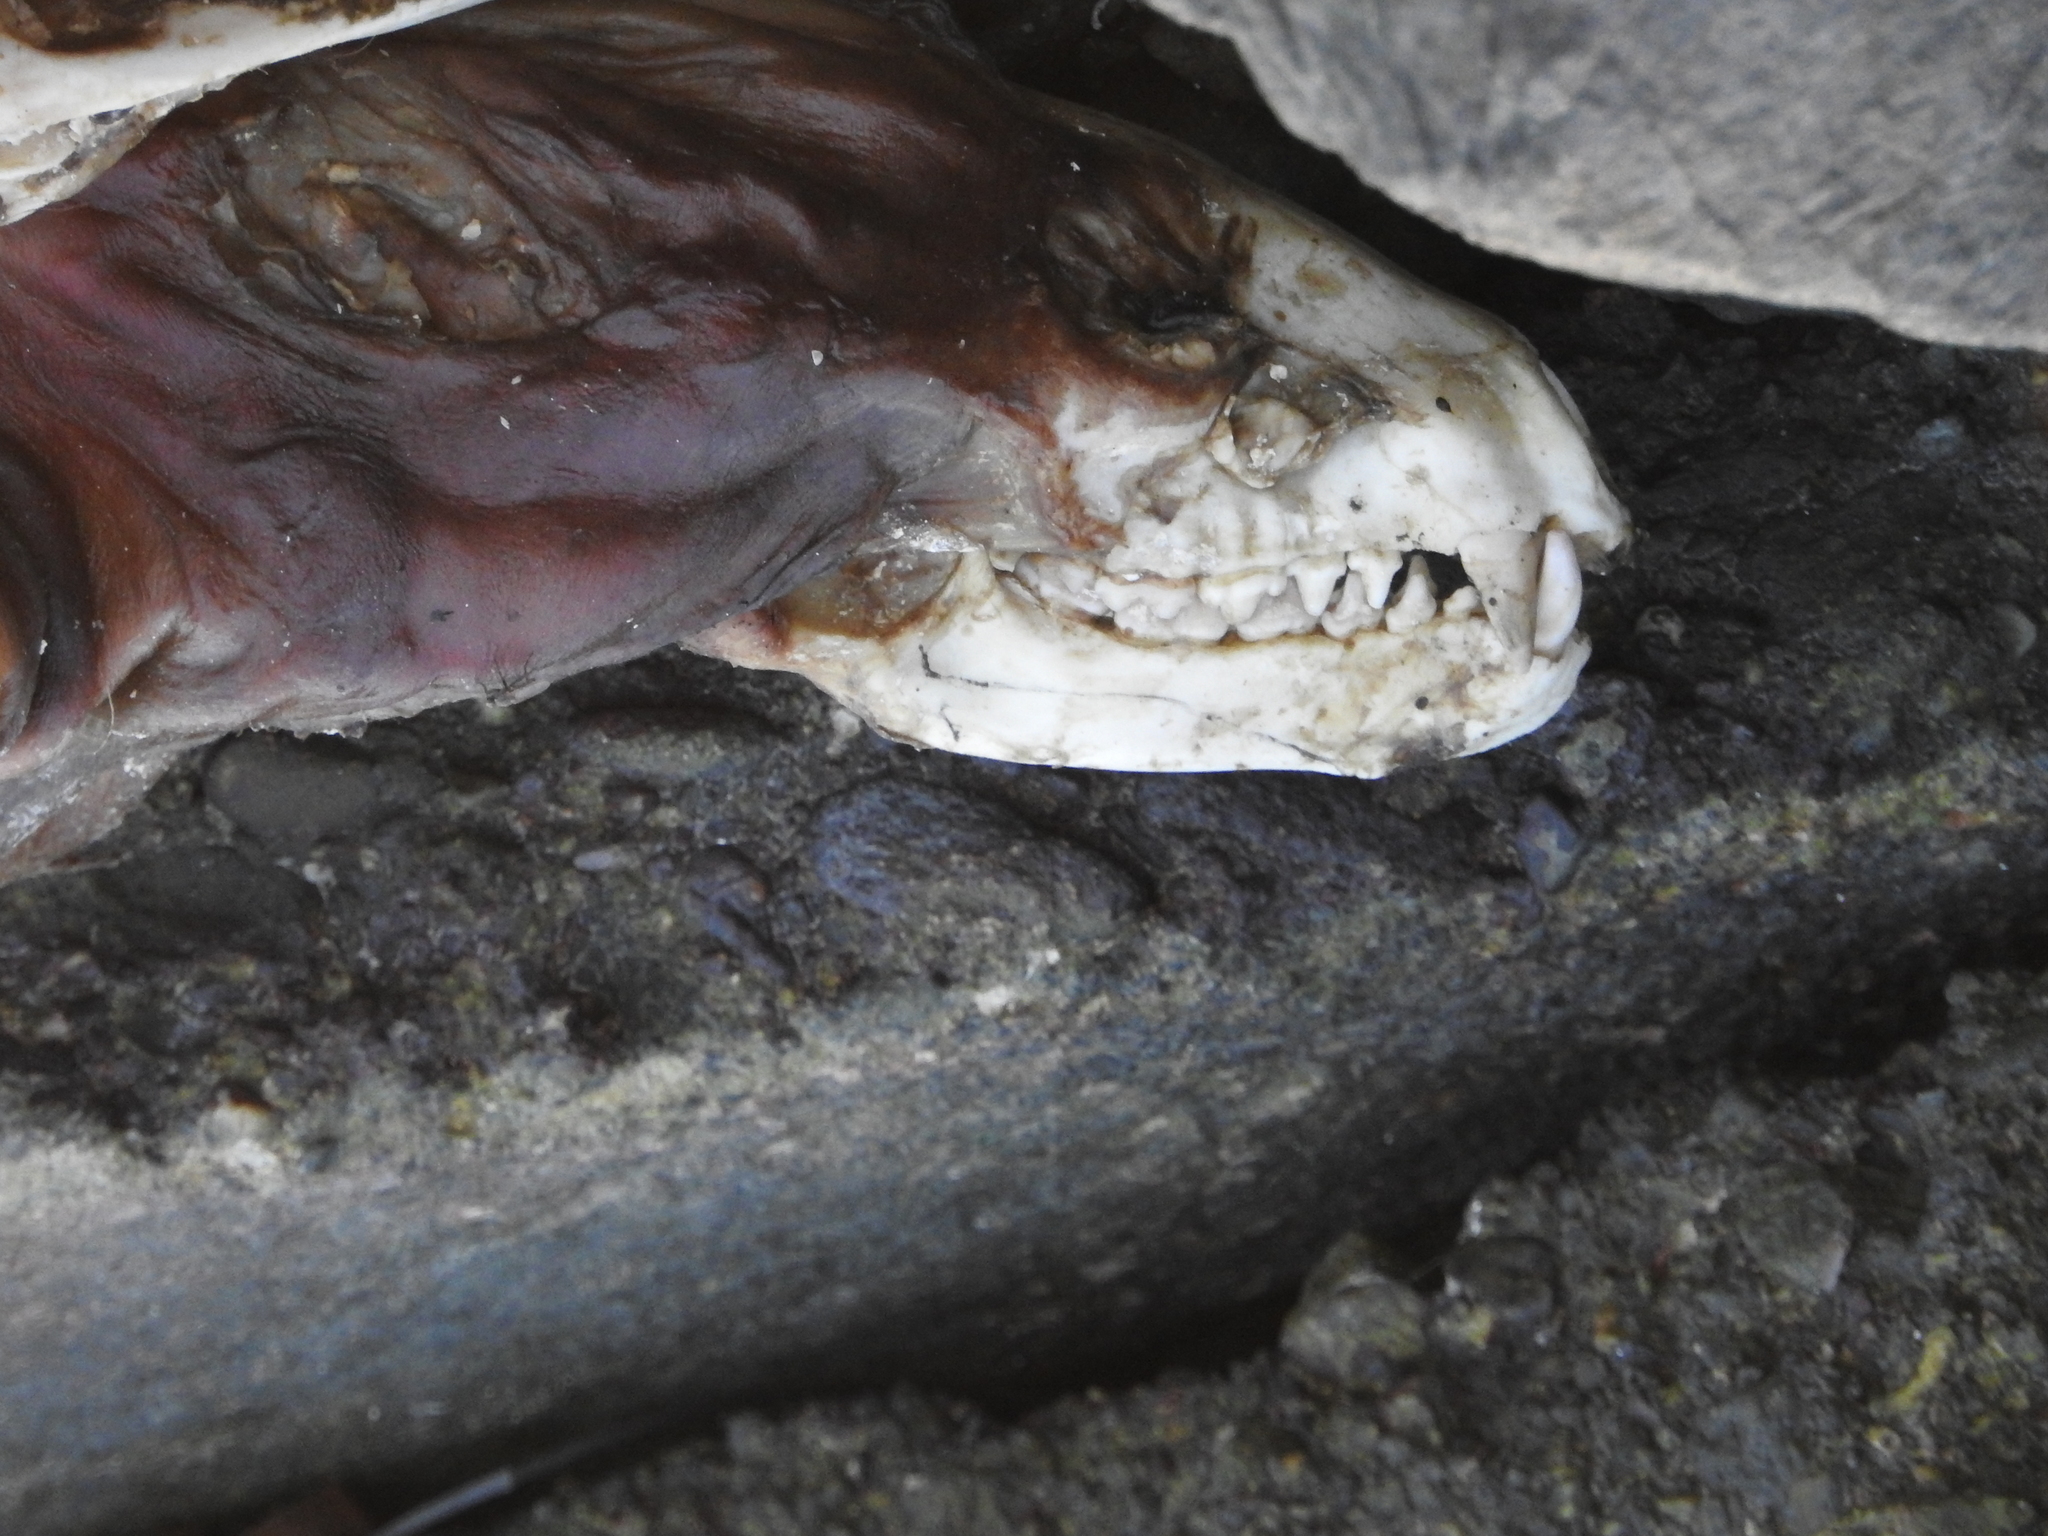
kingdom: Animalia
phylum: Chordata
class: Mammalia
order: Carnivora
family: Procyonidae
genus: Procyon
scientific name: Procyon lotor
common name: Raccoon
